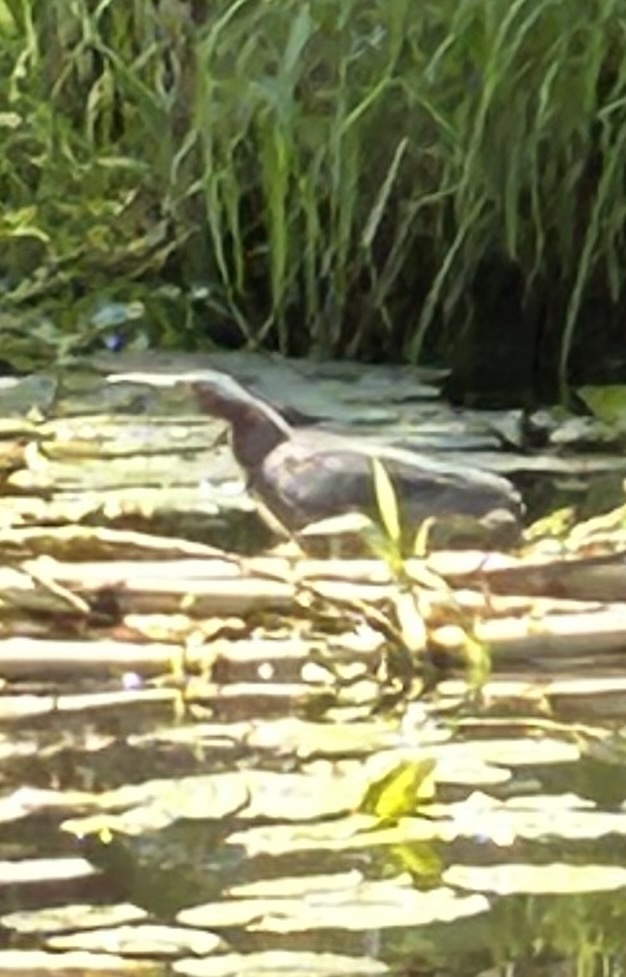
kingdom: Animalia
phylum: Chordata
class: Aves
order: Pelecaniformes
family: Ardeidae
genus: Butorides
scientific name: Butorides virescens
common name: Green heron
